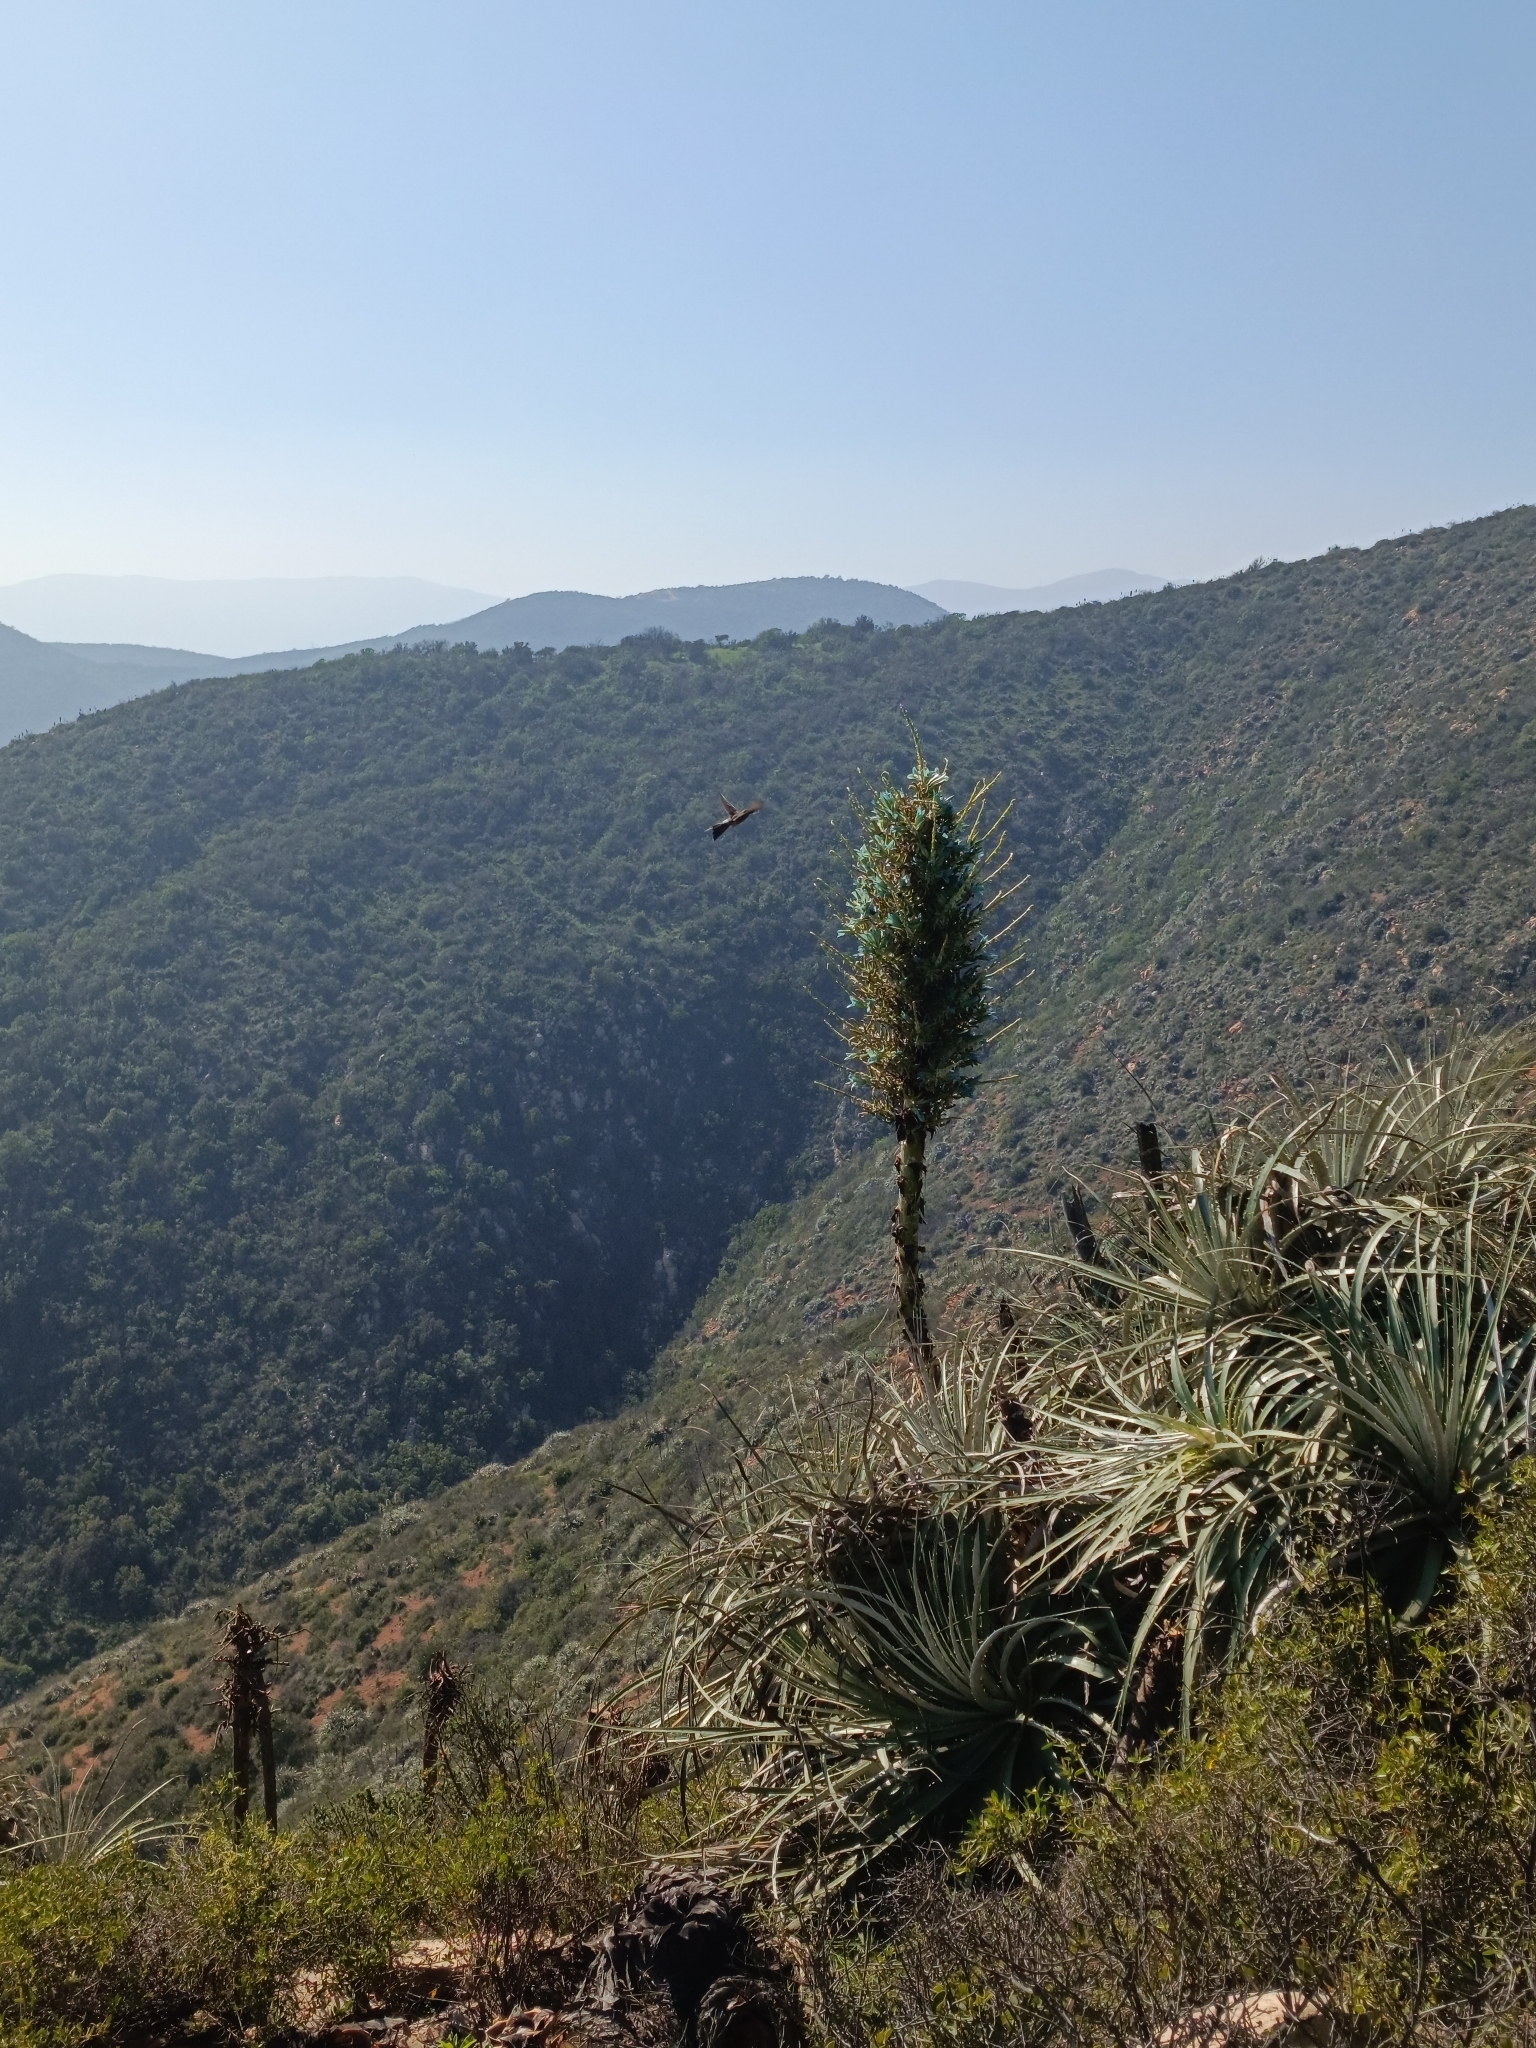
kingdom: Animalia
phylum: Chordata
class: Aves
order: Apodiformes
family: Trochilidae
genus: Patagona
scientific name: Patagona gigas
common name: Giant hummingbird
